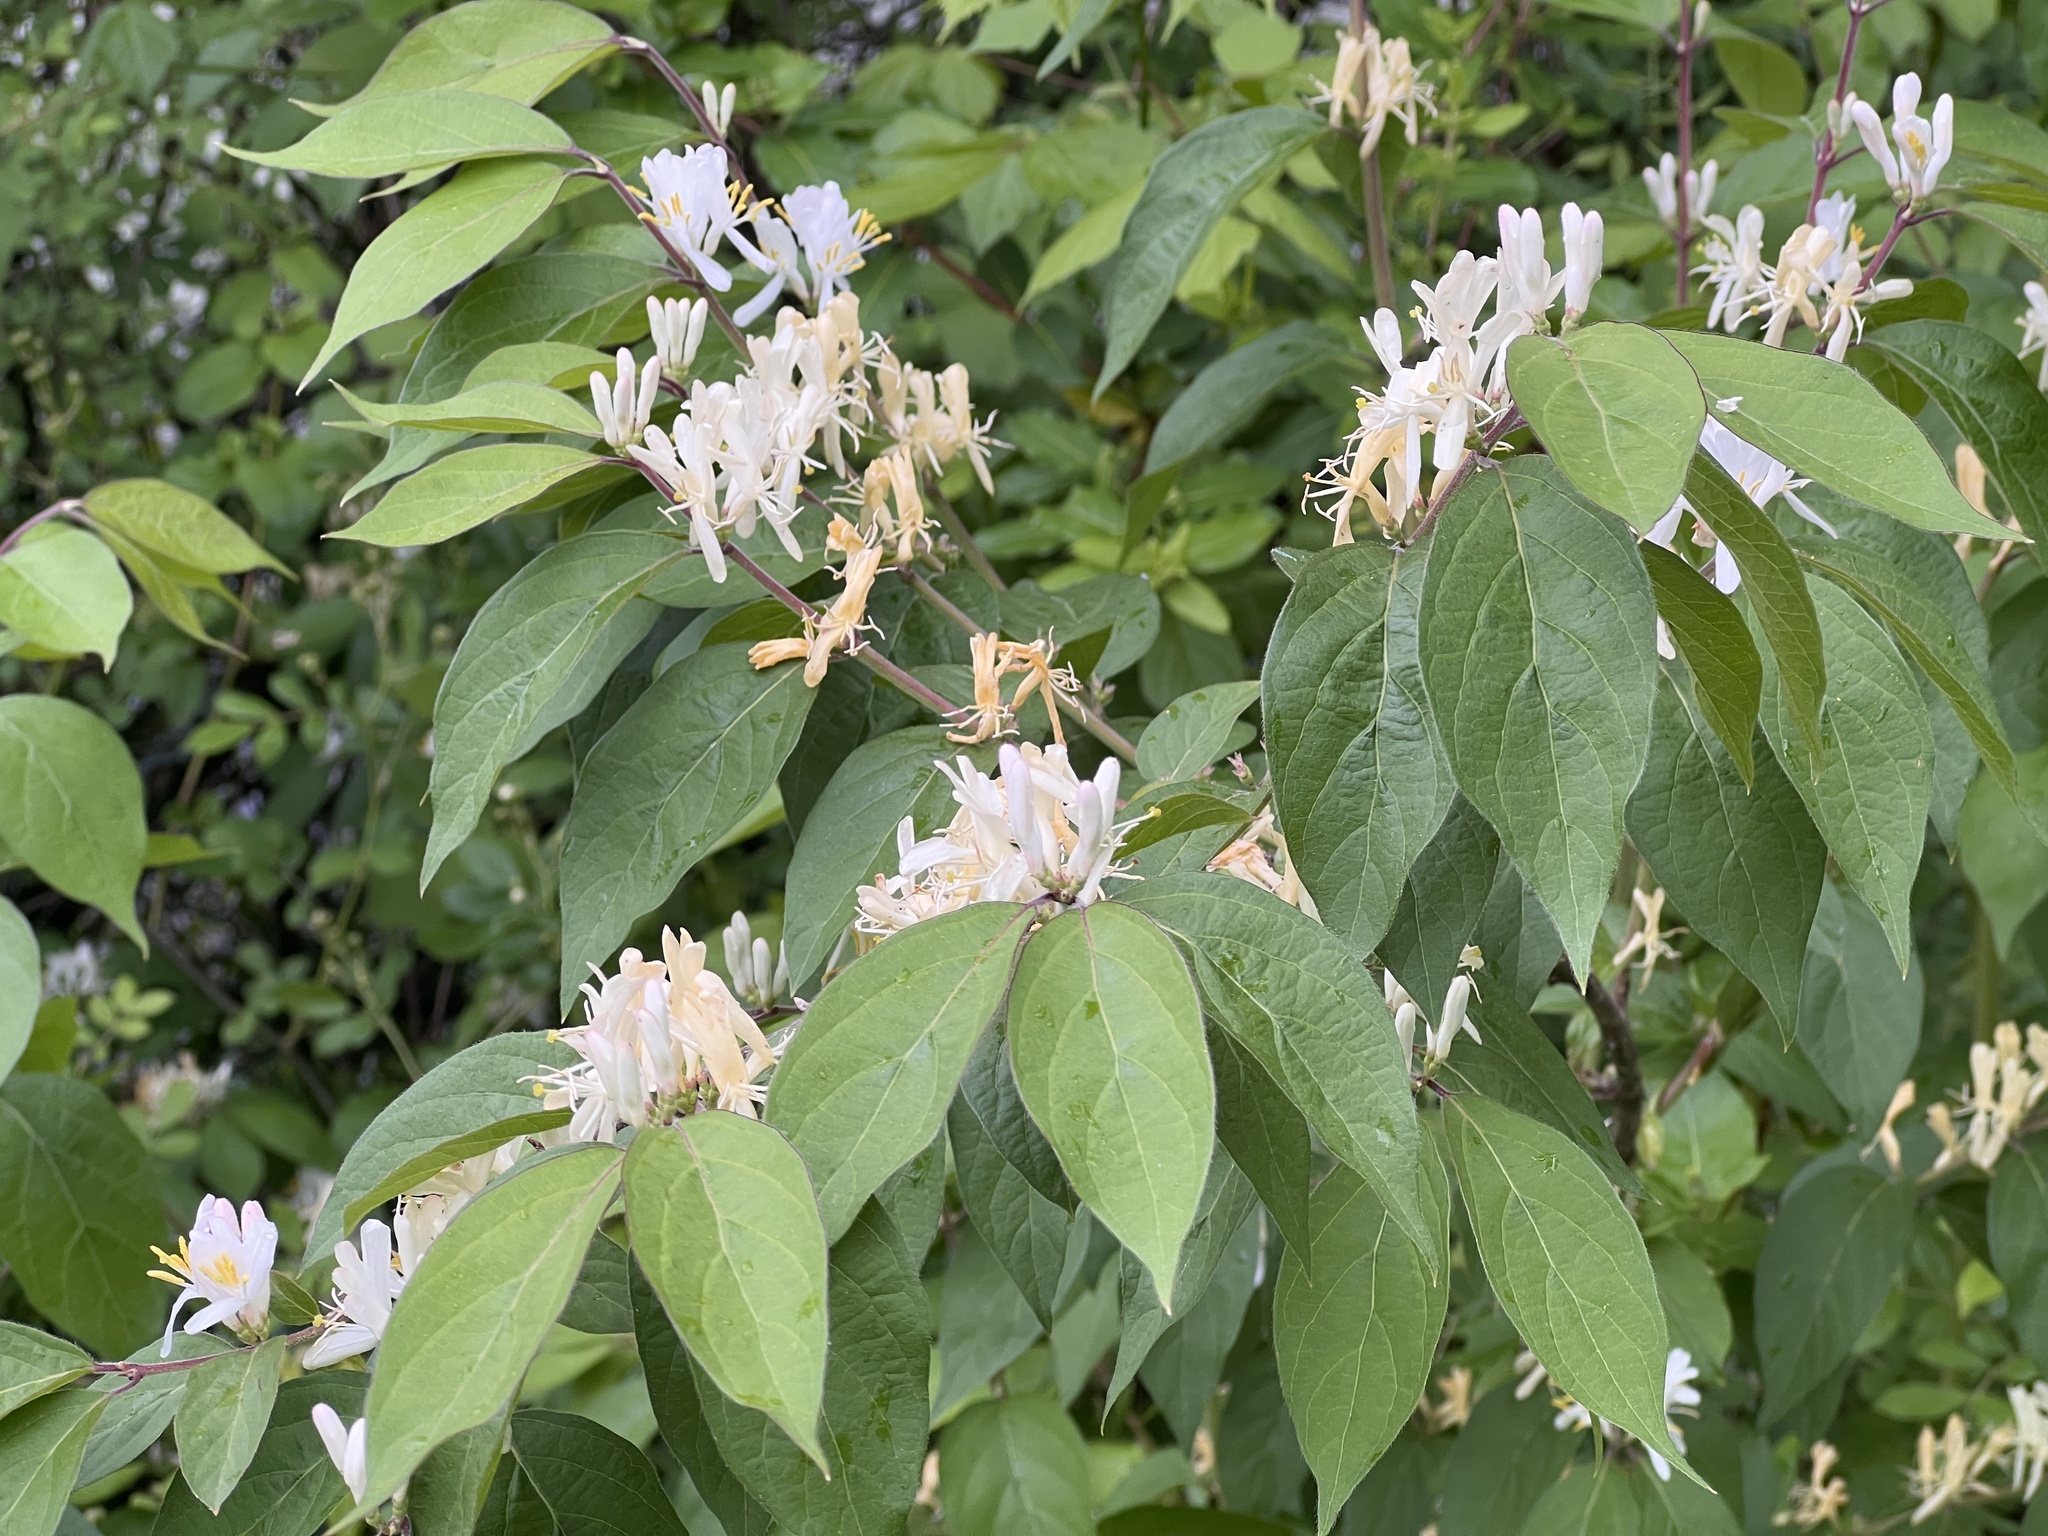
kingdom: Plantae
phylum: Tracheophyta
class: Magnoliopsida
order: Dipsacales
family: Caprifoliaceae
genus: Lonicera
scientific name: Lonicera maackii
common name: Amur honeysuckle
